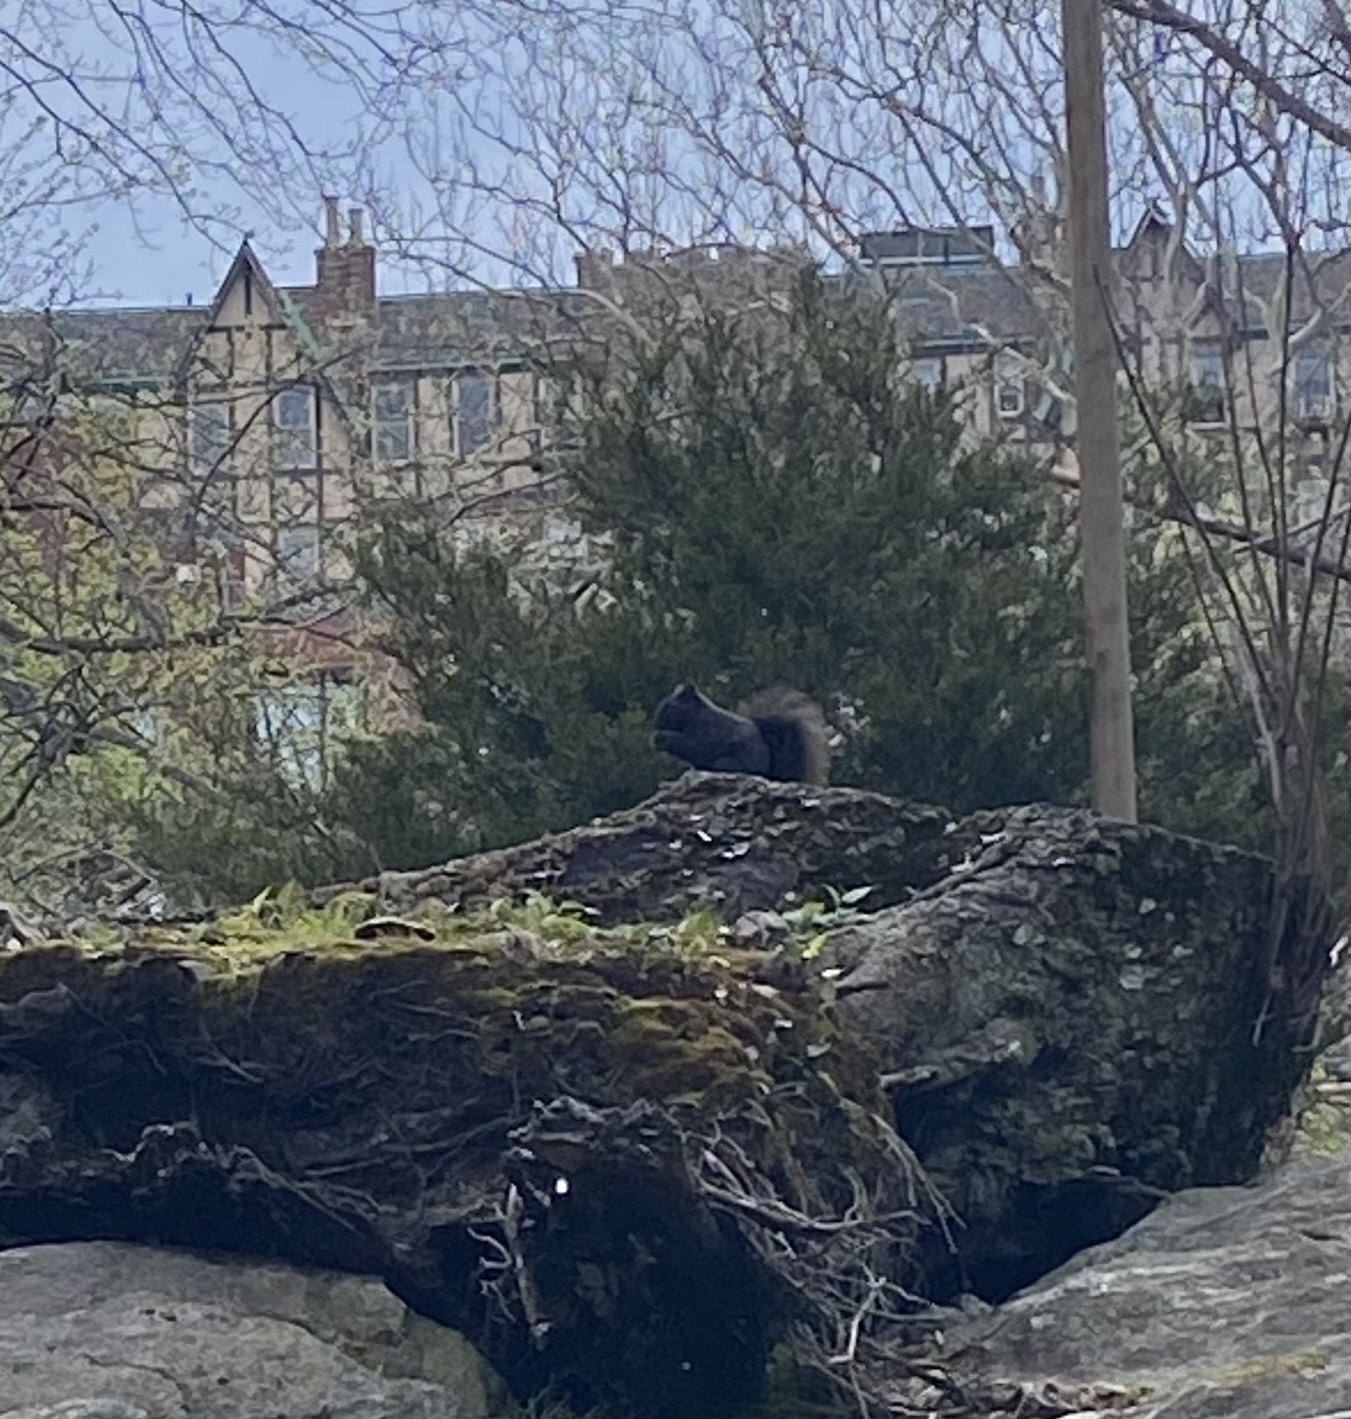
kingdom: Animalia
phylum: Chordata
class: Mammalia
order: Rodentia
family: Sciuridae
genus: Sciurus
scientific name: Sciurus carolinensis
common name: Eastern gray squirrel
